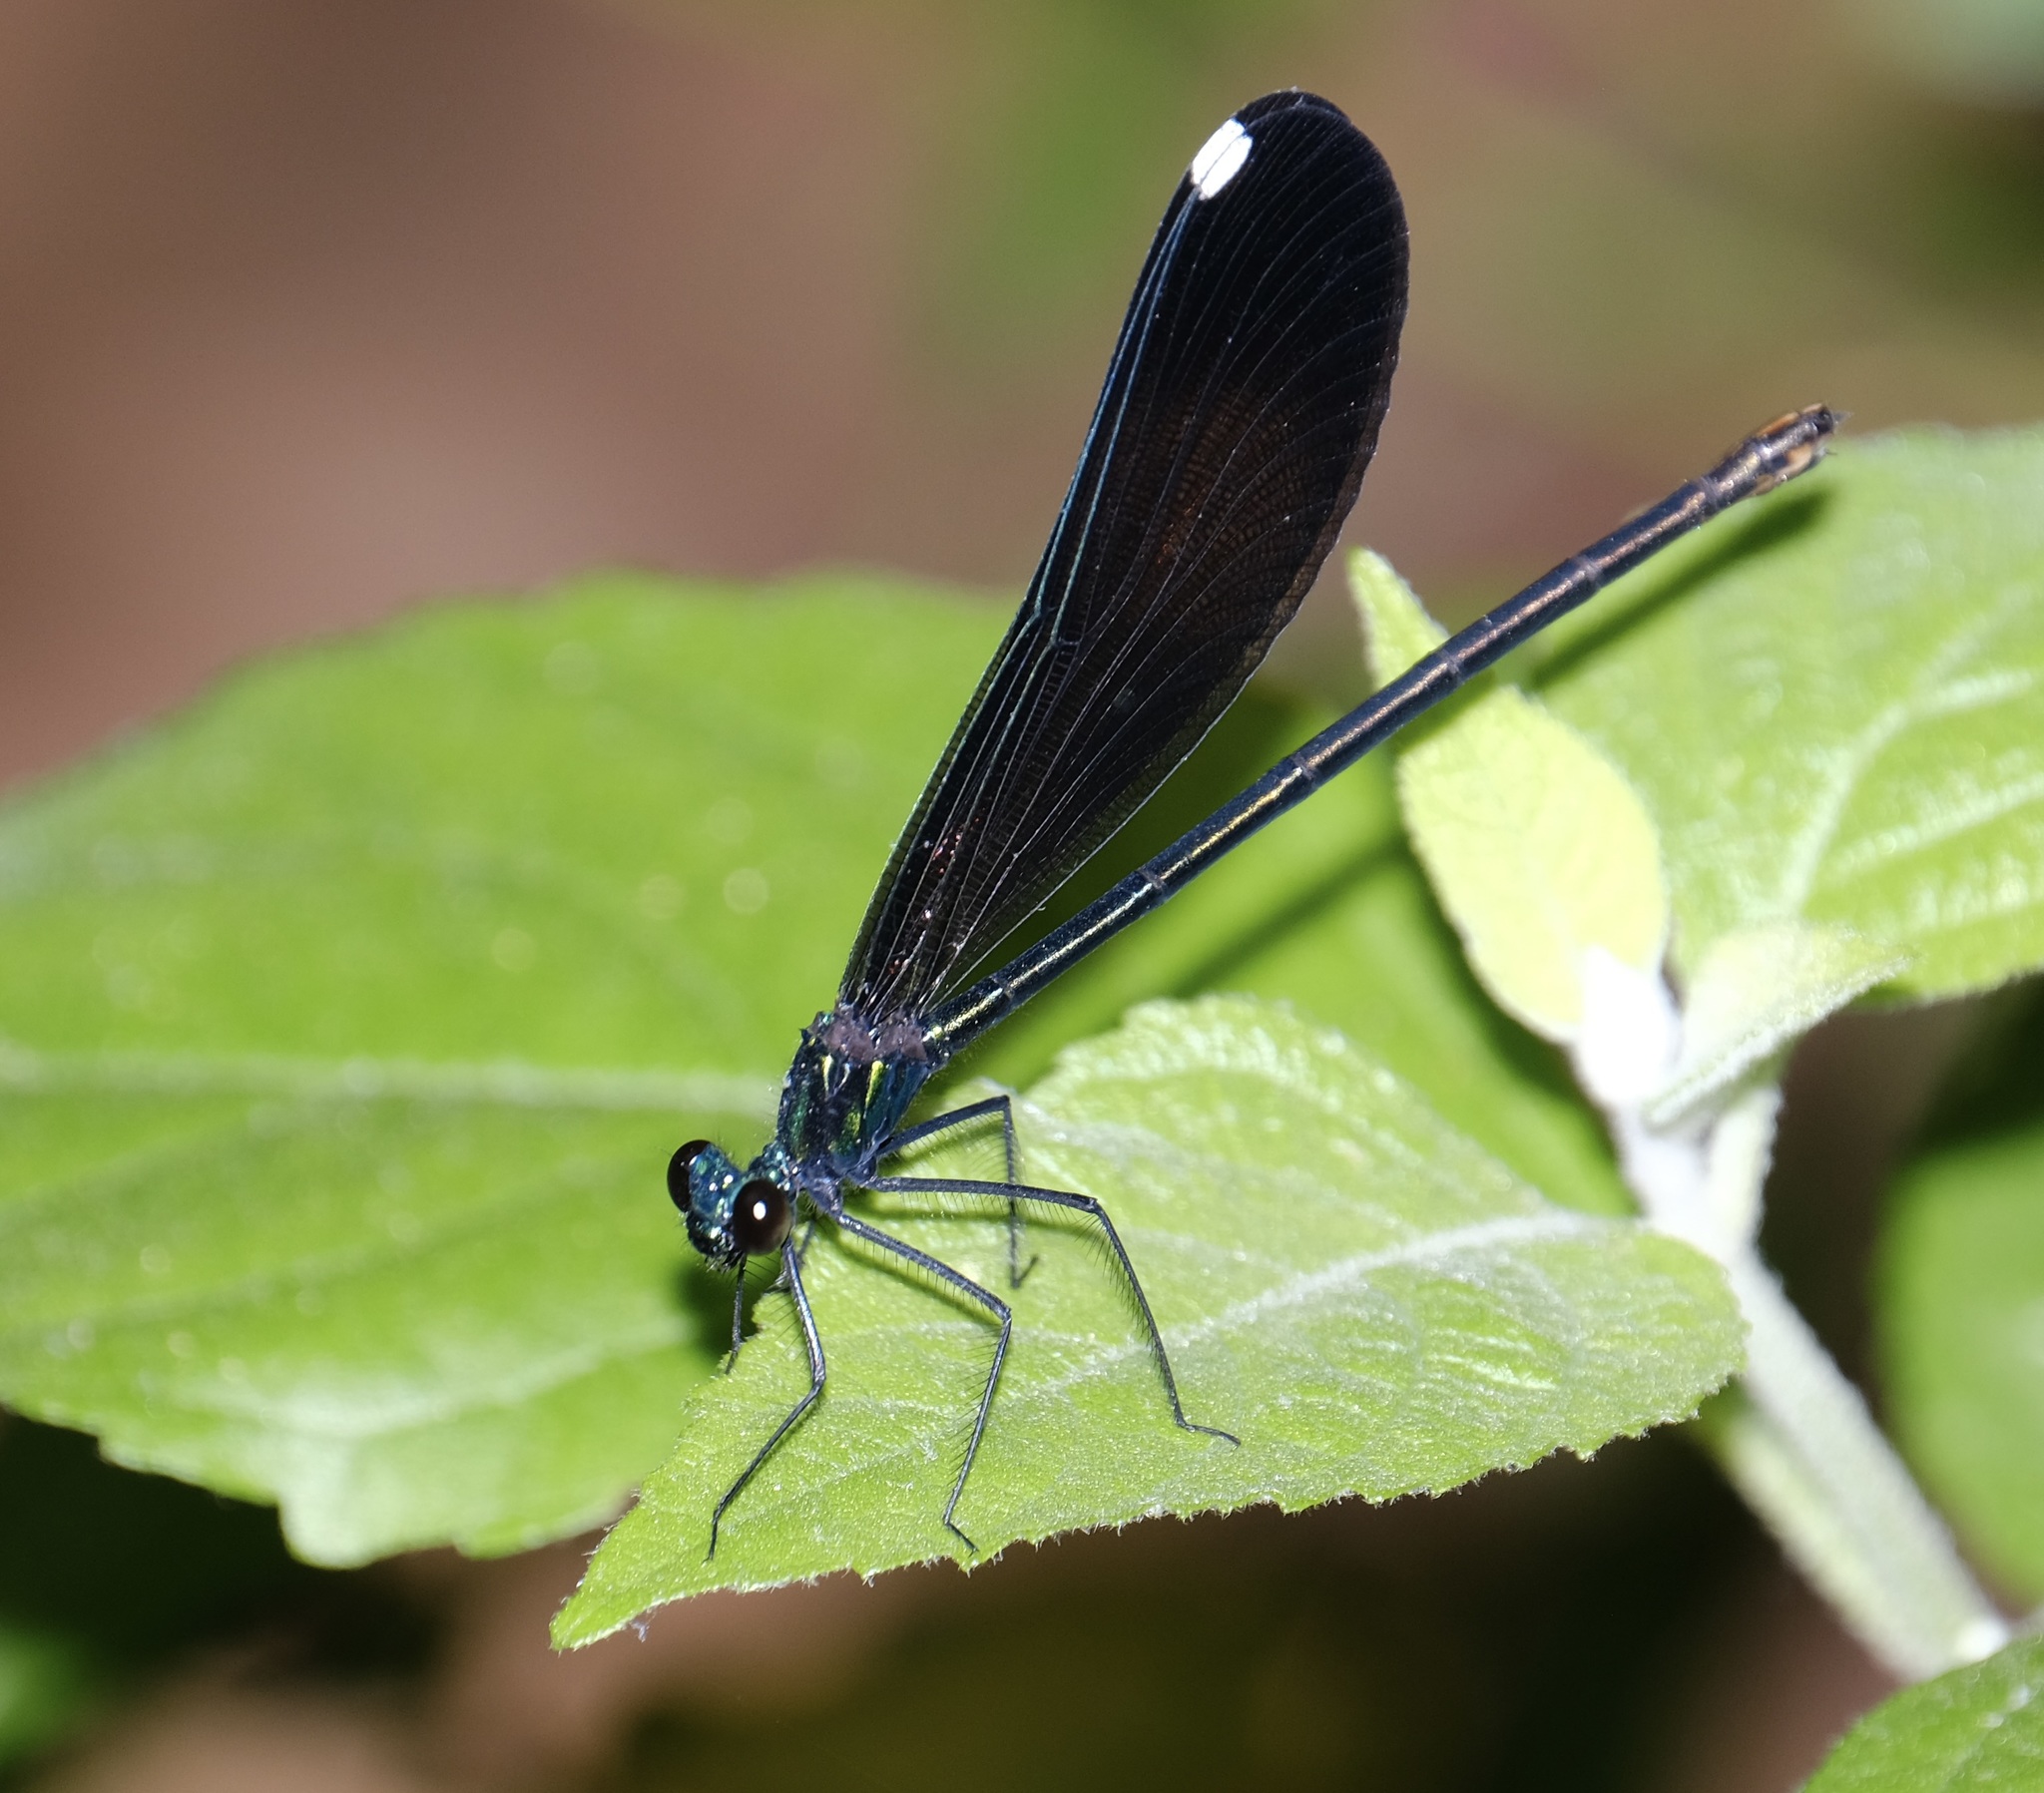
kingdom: Animalia
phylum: Arthropoda
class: Insecta
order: Odonata
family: Calopterygidae
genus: Calopteryx
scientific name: Calopteryx maculata
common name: Ebony jewelwing
